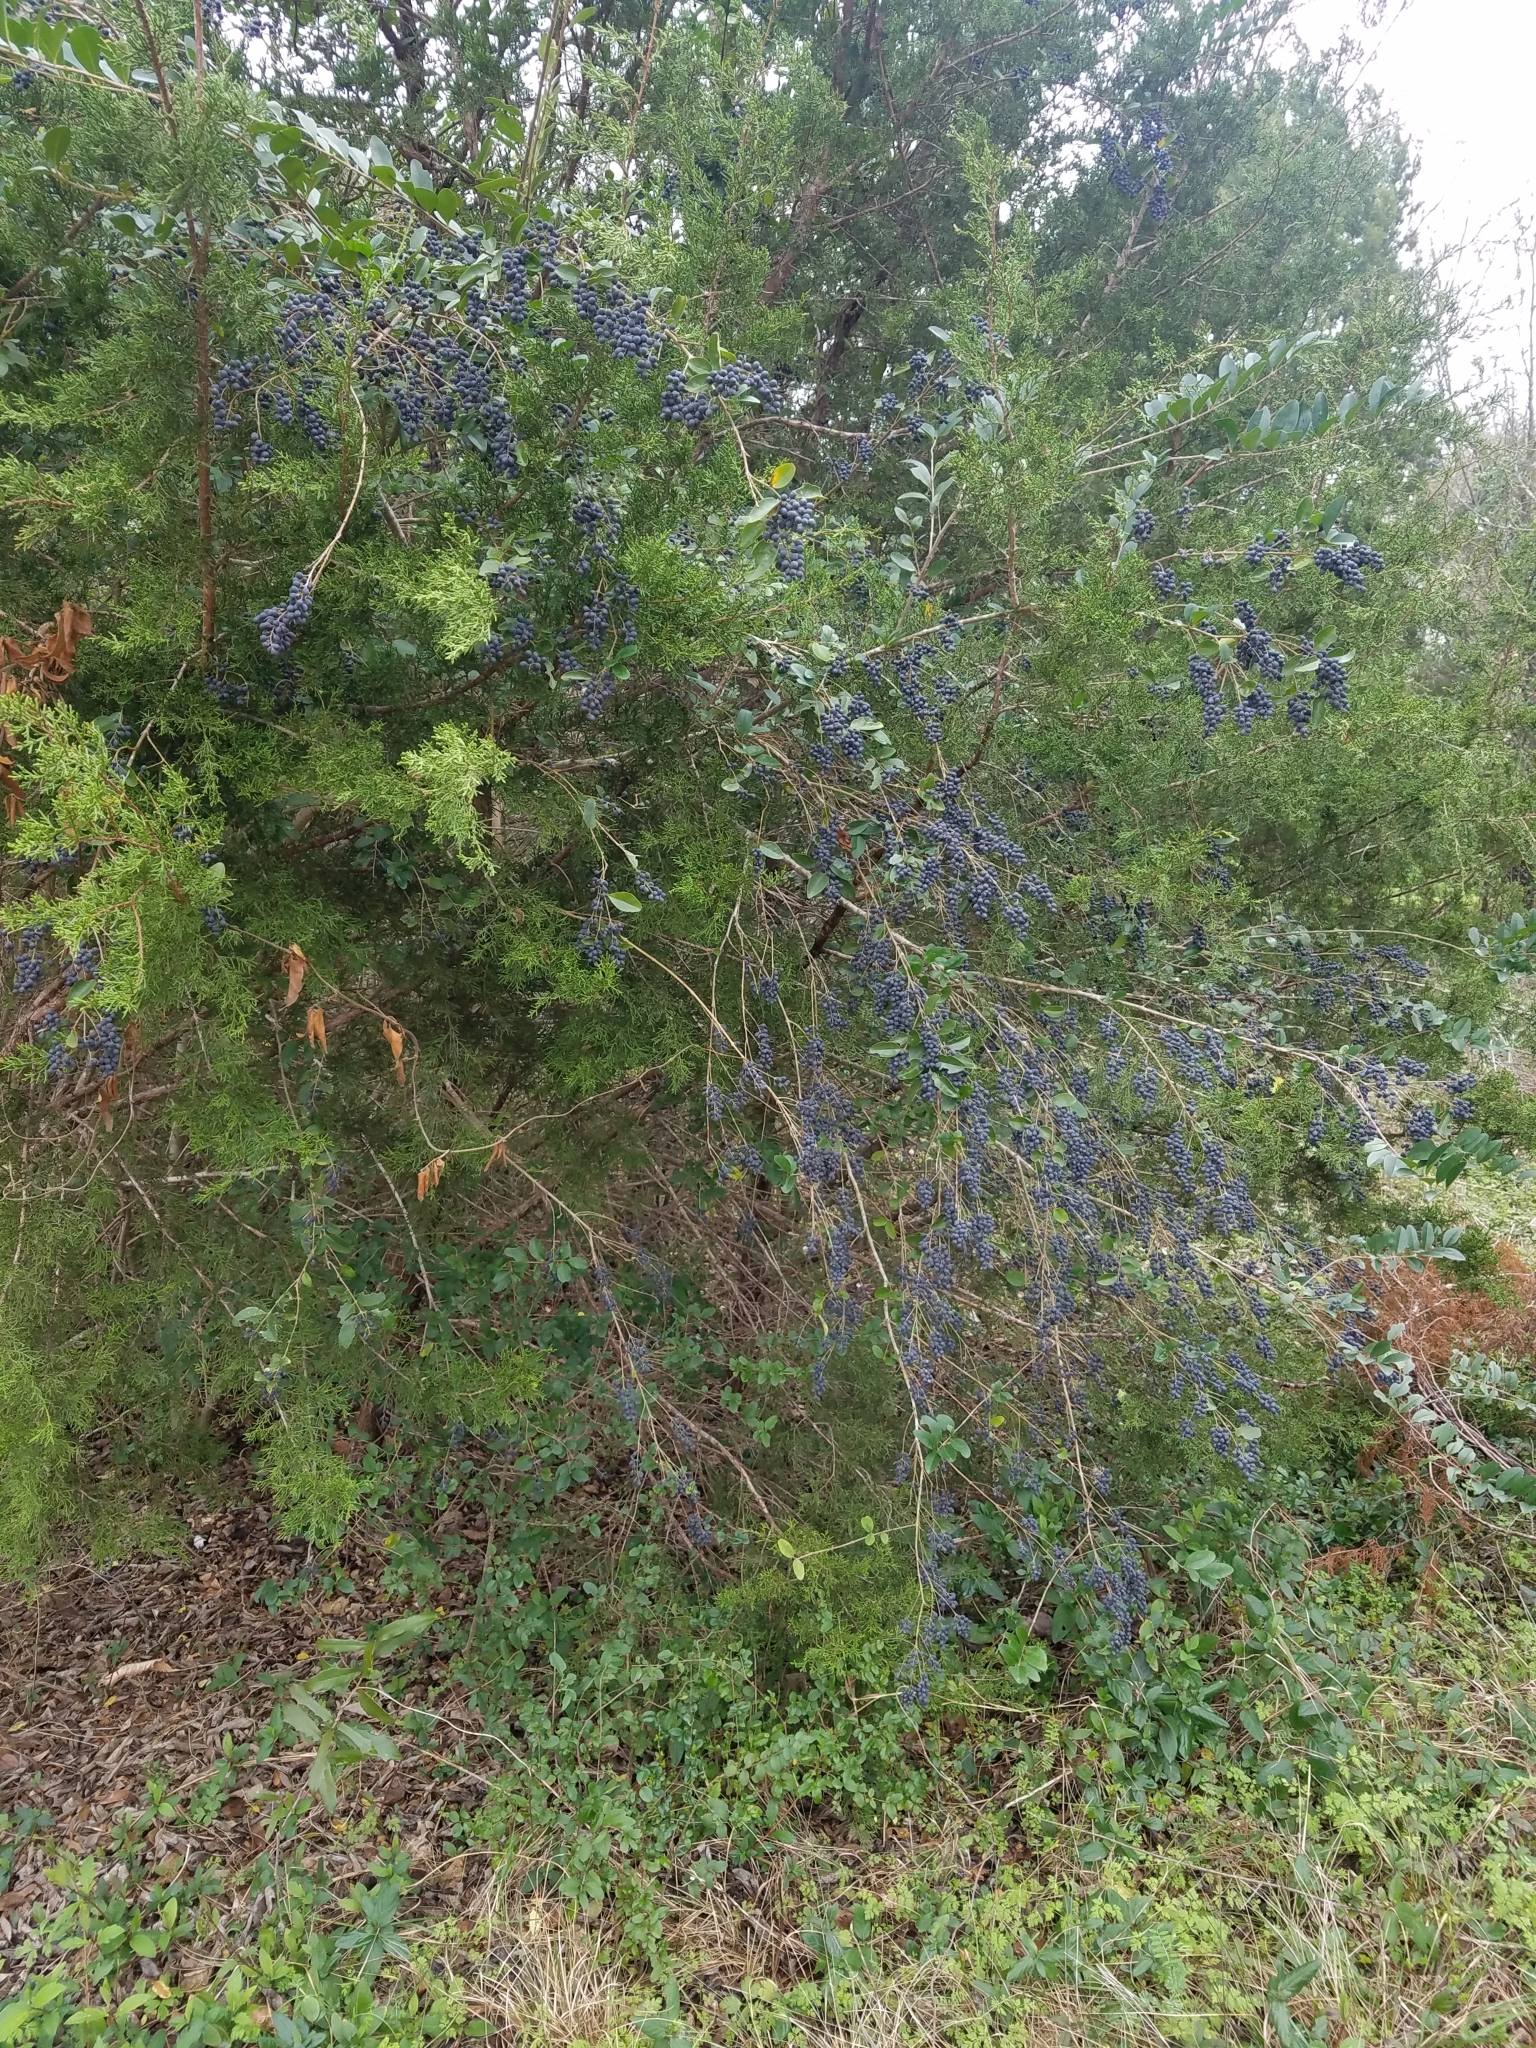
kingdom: Plantae
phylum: Tracheophyta
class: Magnoliopsida
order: Lamiales
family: Oleaceae
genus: Ligustrum
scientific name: Ligustrum sinense
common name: Chinese privet
